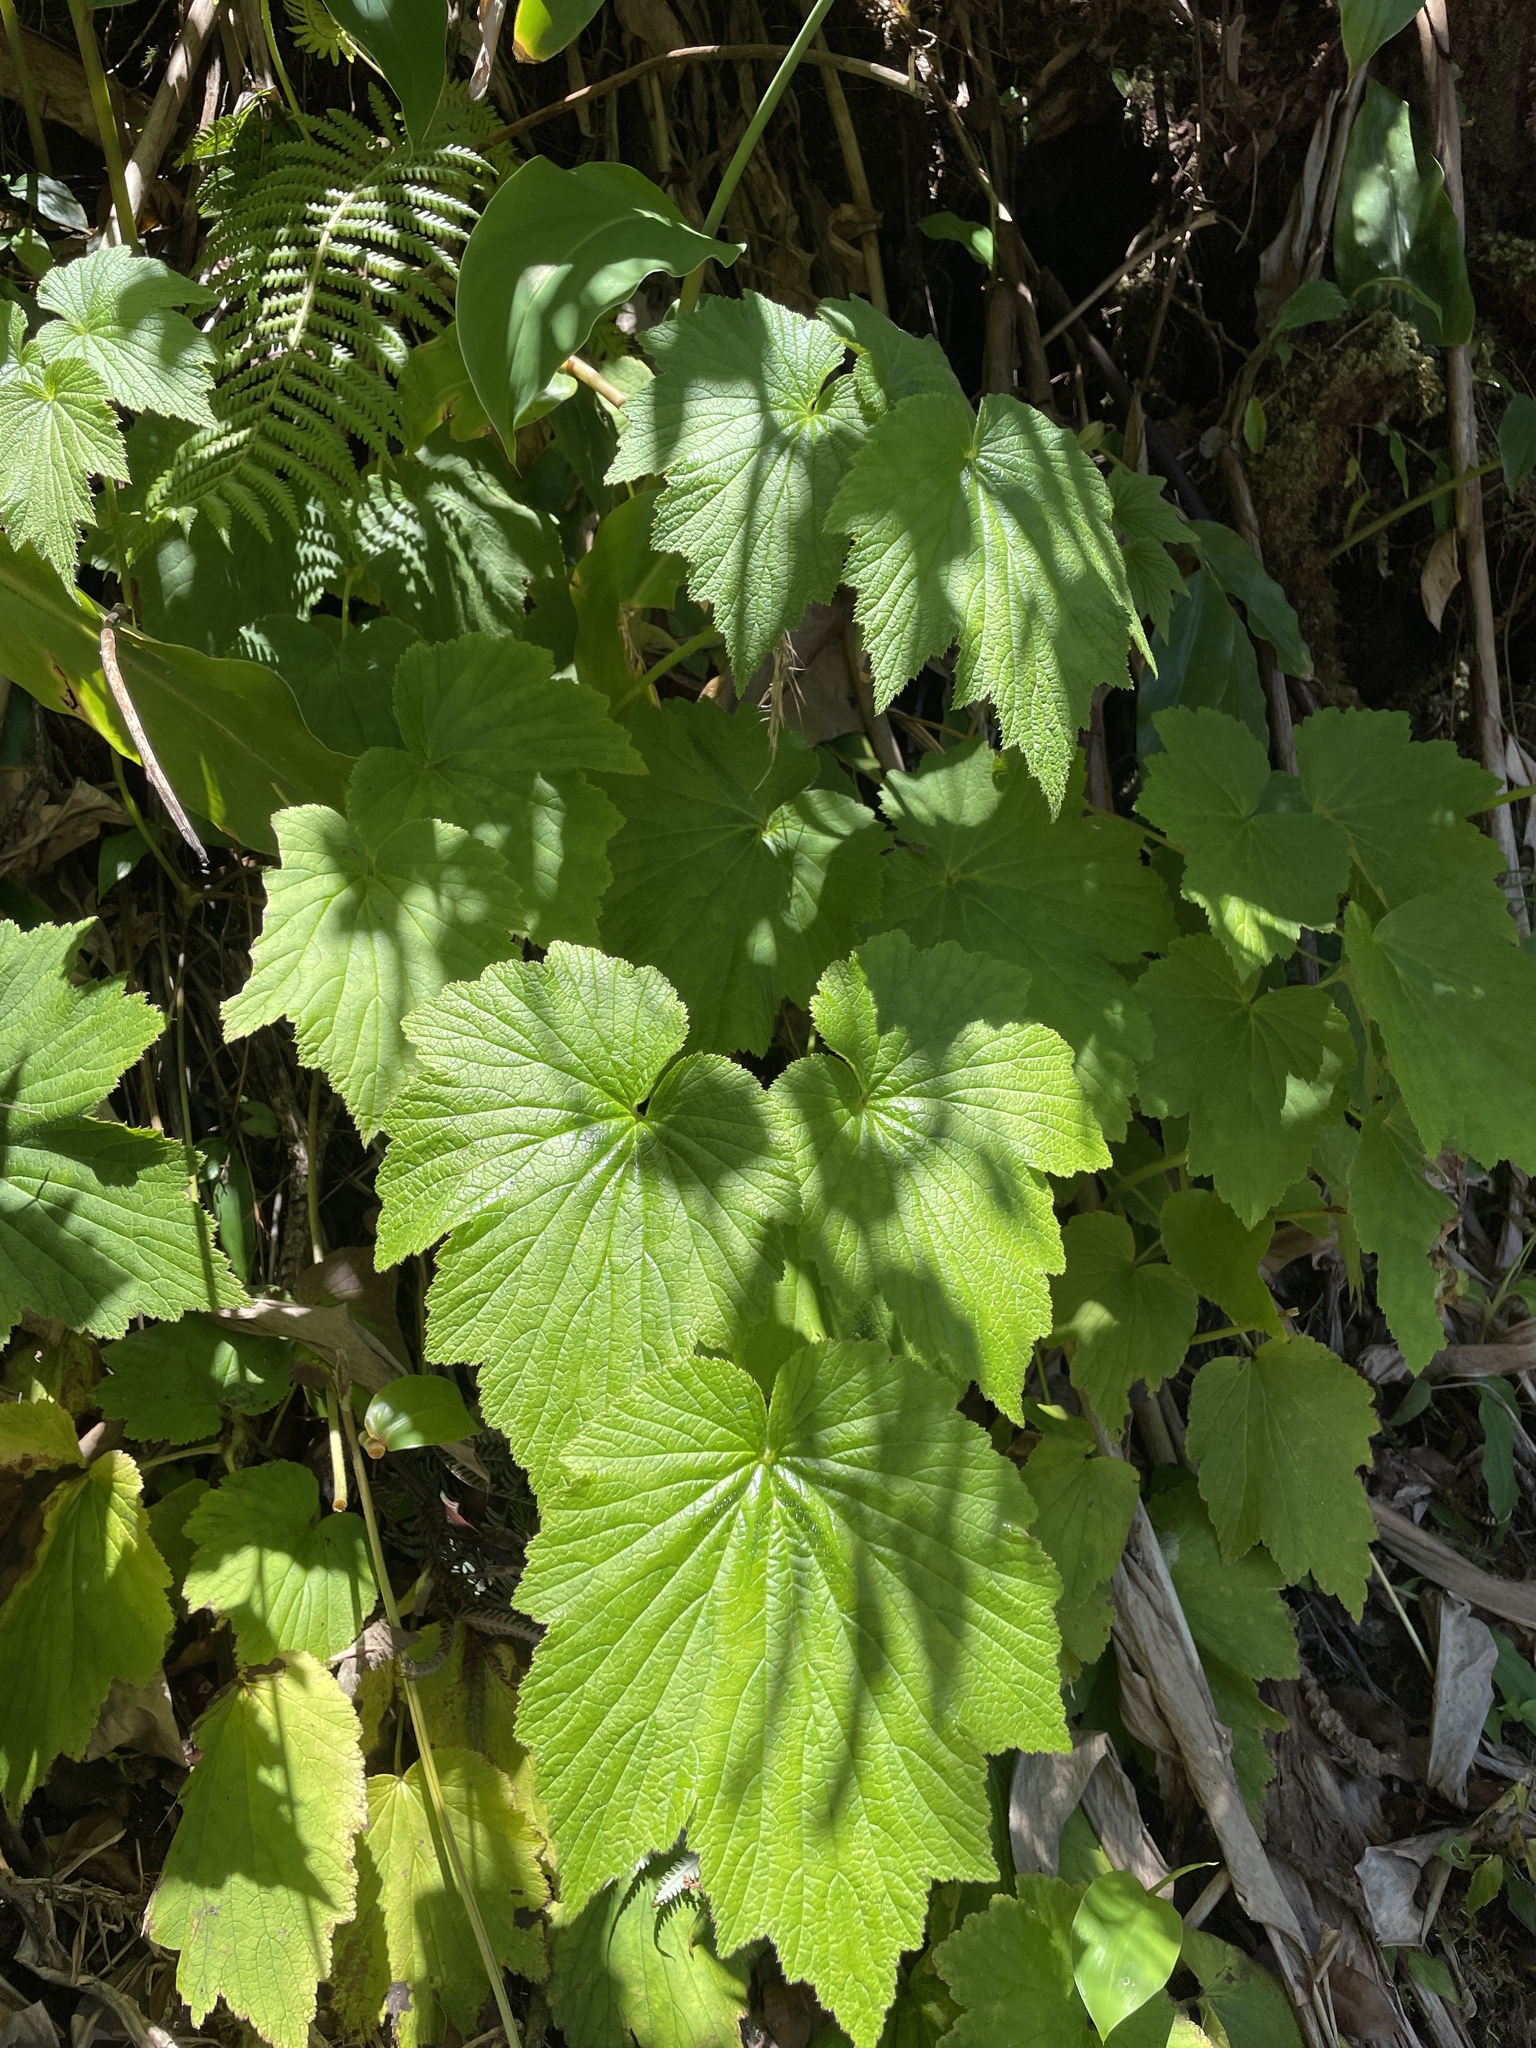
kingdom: Plantae
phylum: Tracheophyta
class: Magnoliopsida
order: Ranunculales
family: Ranunculaceae
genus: Eriocapitella
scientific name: Eriocapitella japonica
